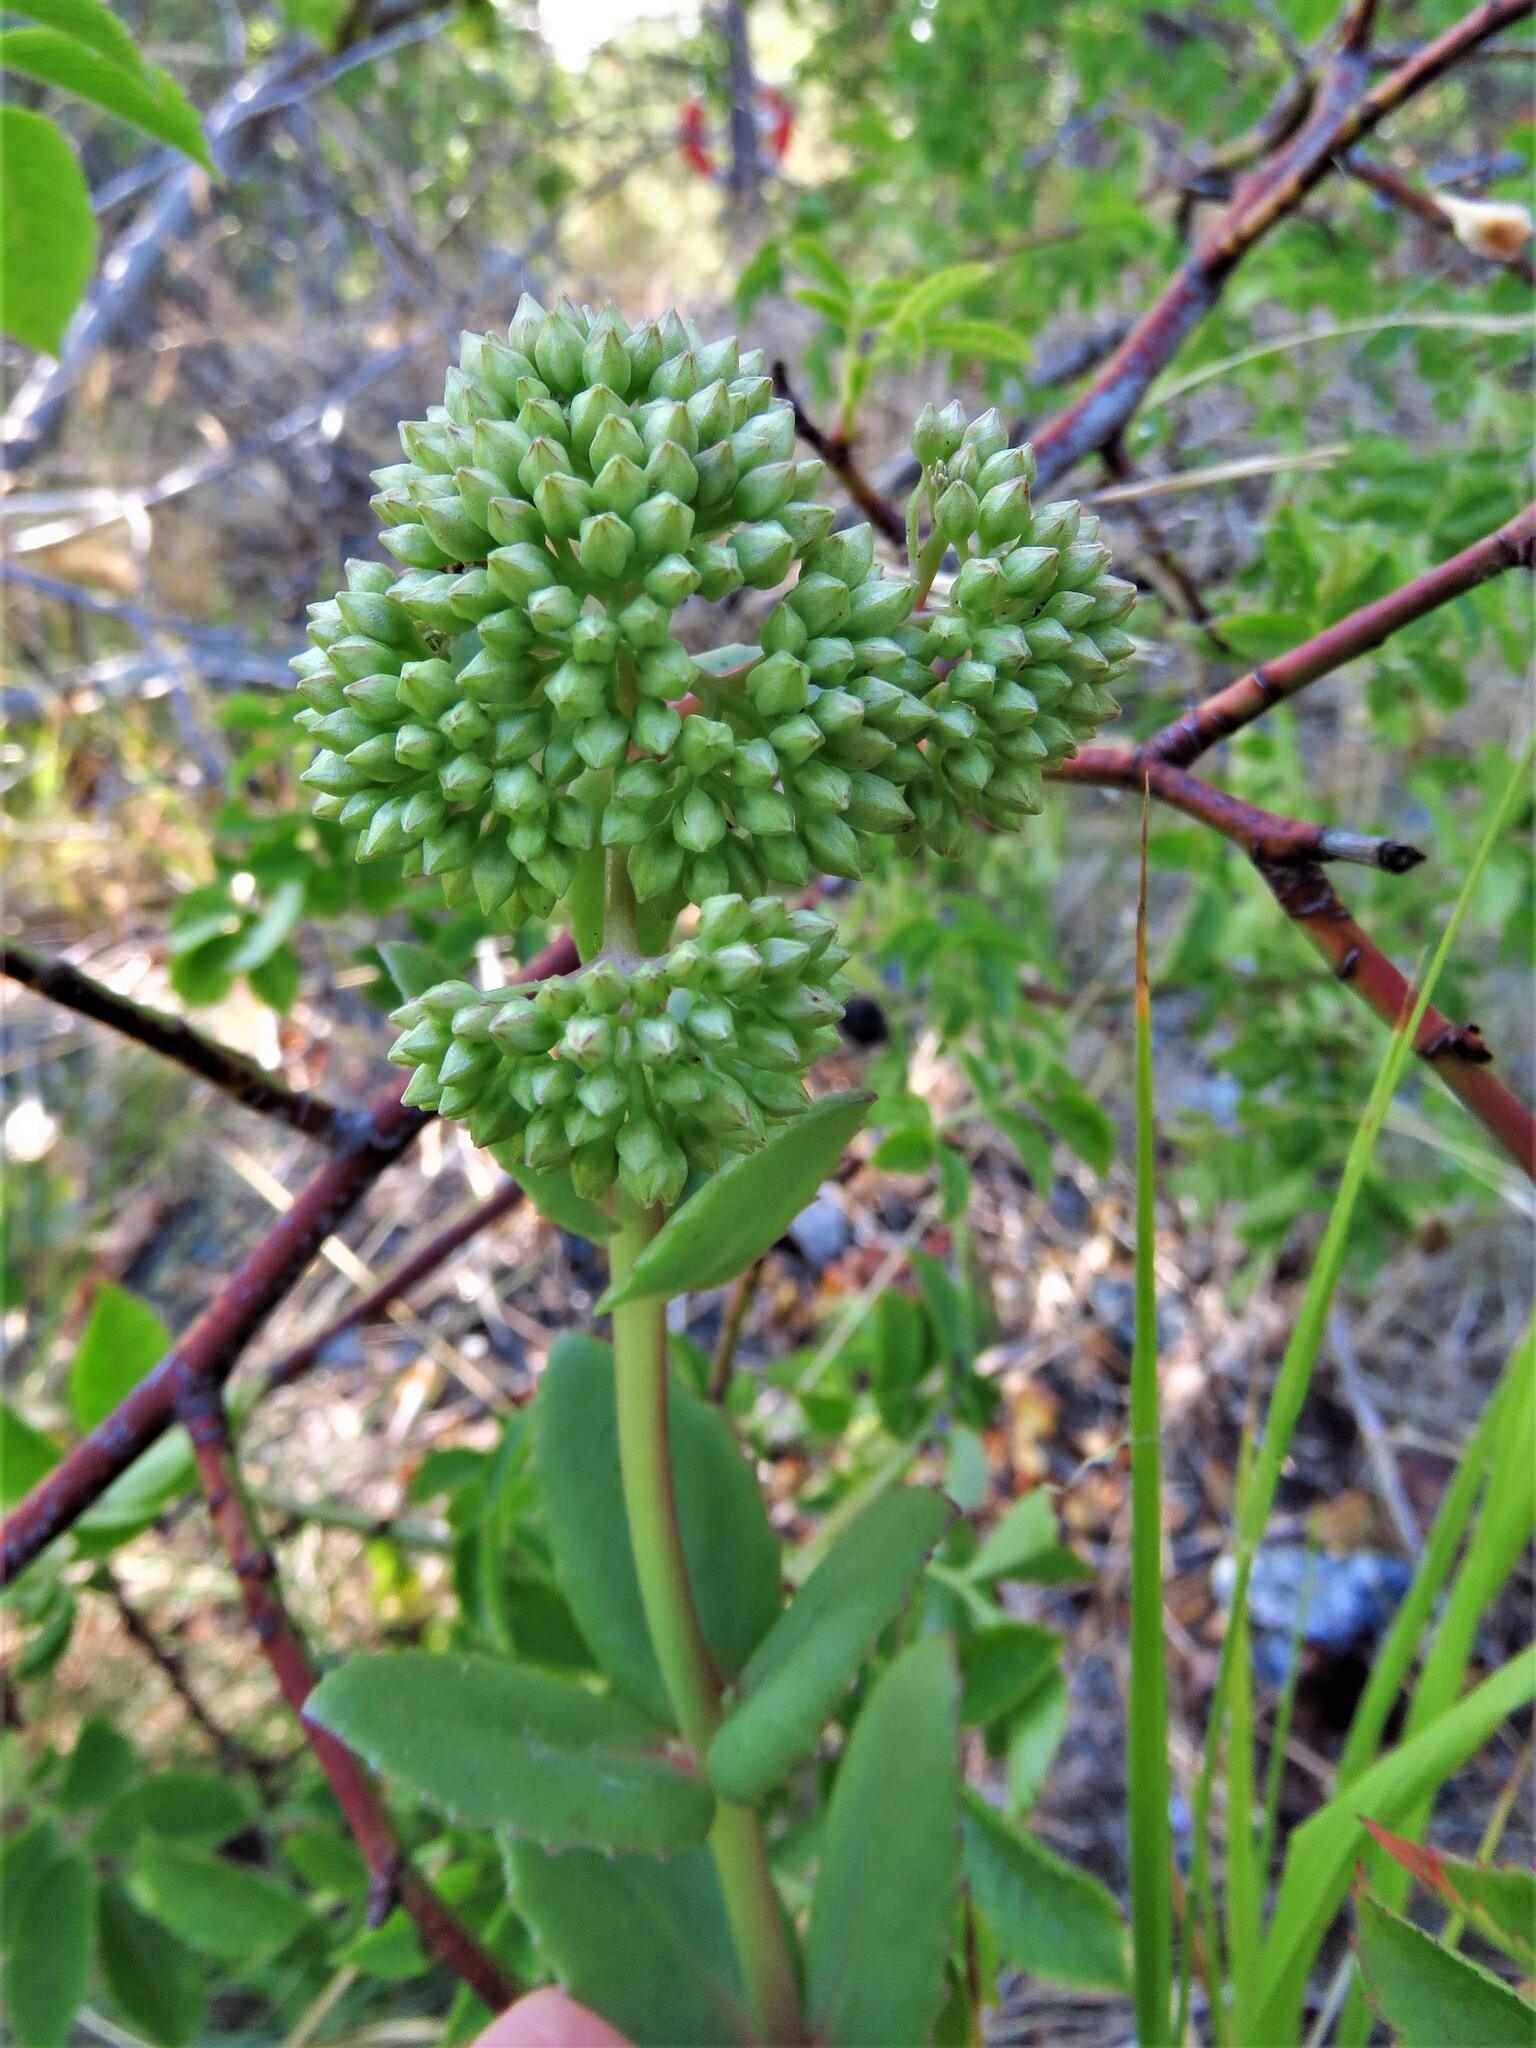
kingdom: Plantae
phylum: Tracheophyta
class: Magnoliopsida
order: Saxifragales
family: Crassulaceae
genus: Hylotelephium
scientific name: Hylotelephium maximum
